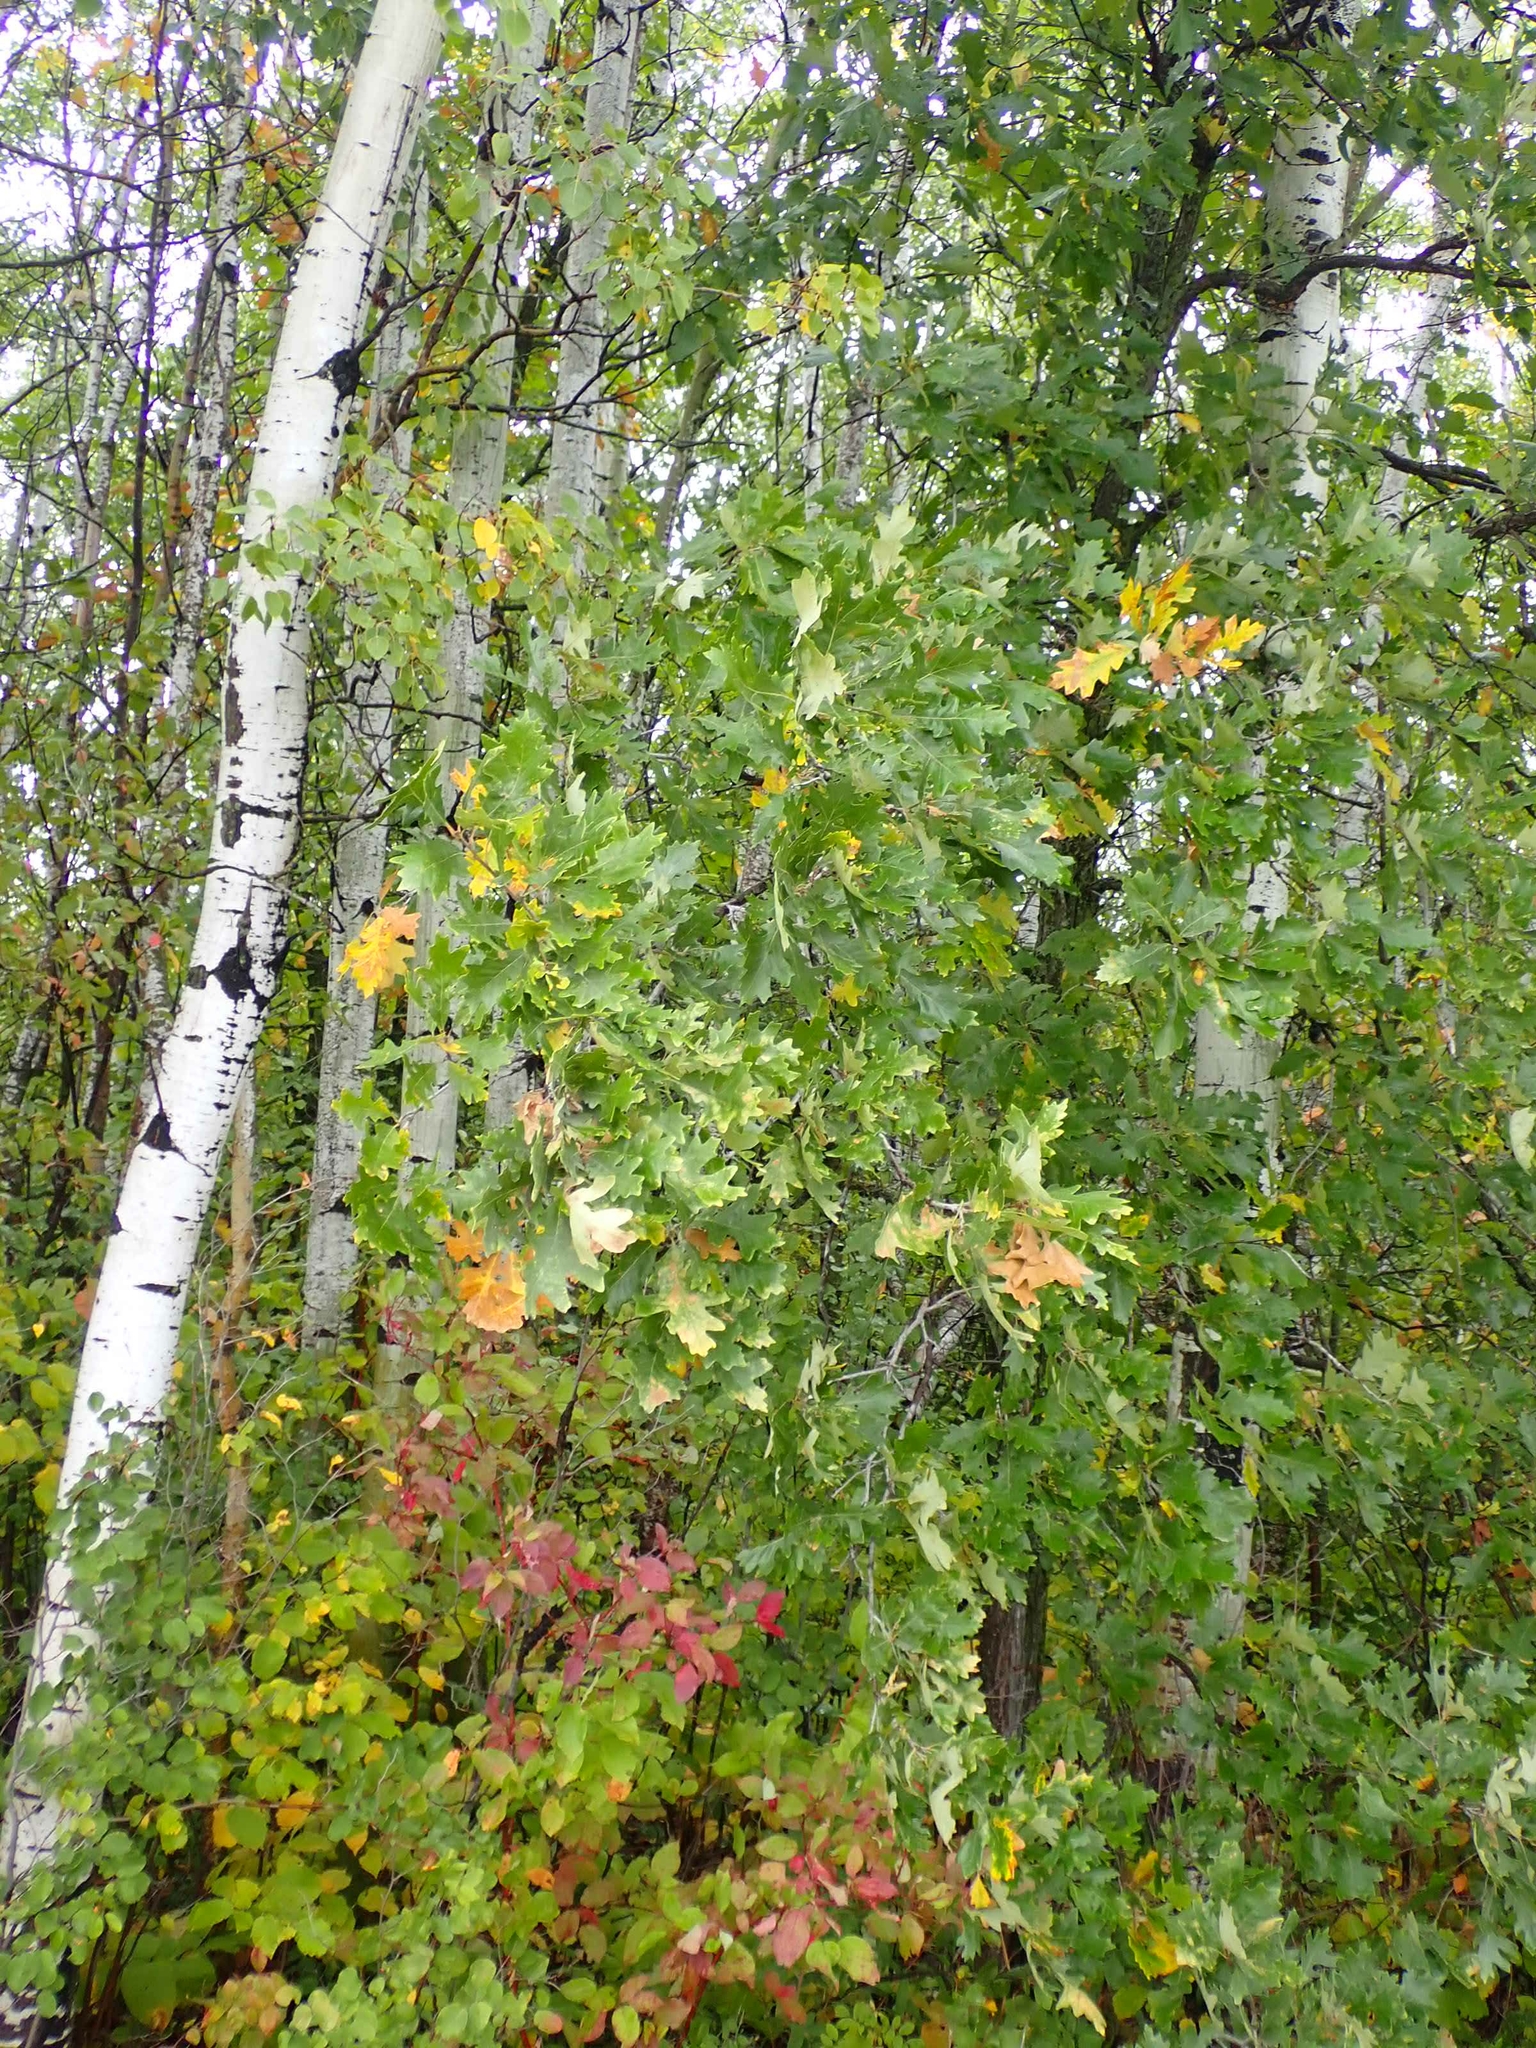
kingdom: Plantae
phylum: Tracheophyta
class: Magnoliopsida
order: Fagales
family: Fagaceae
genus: Quercus
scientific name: Quercus macrocarpa
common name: Bur oak
